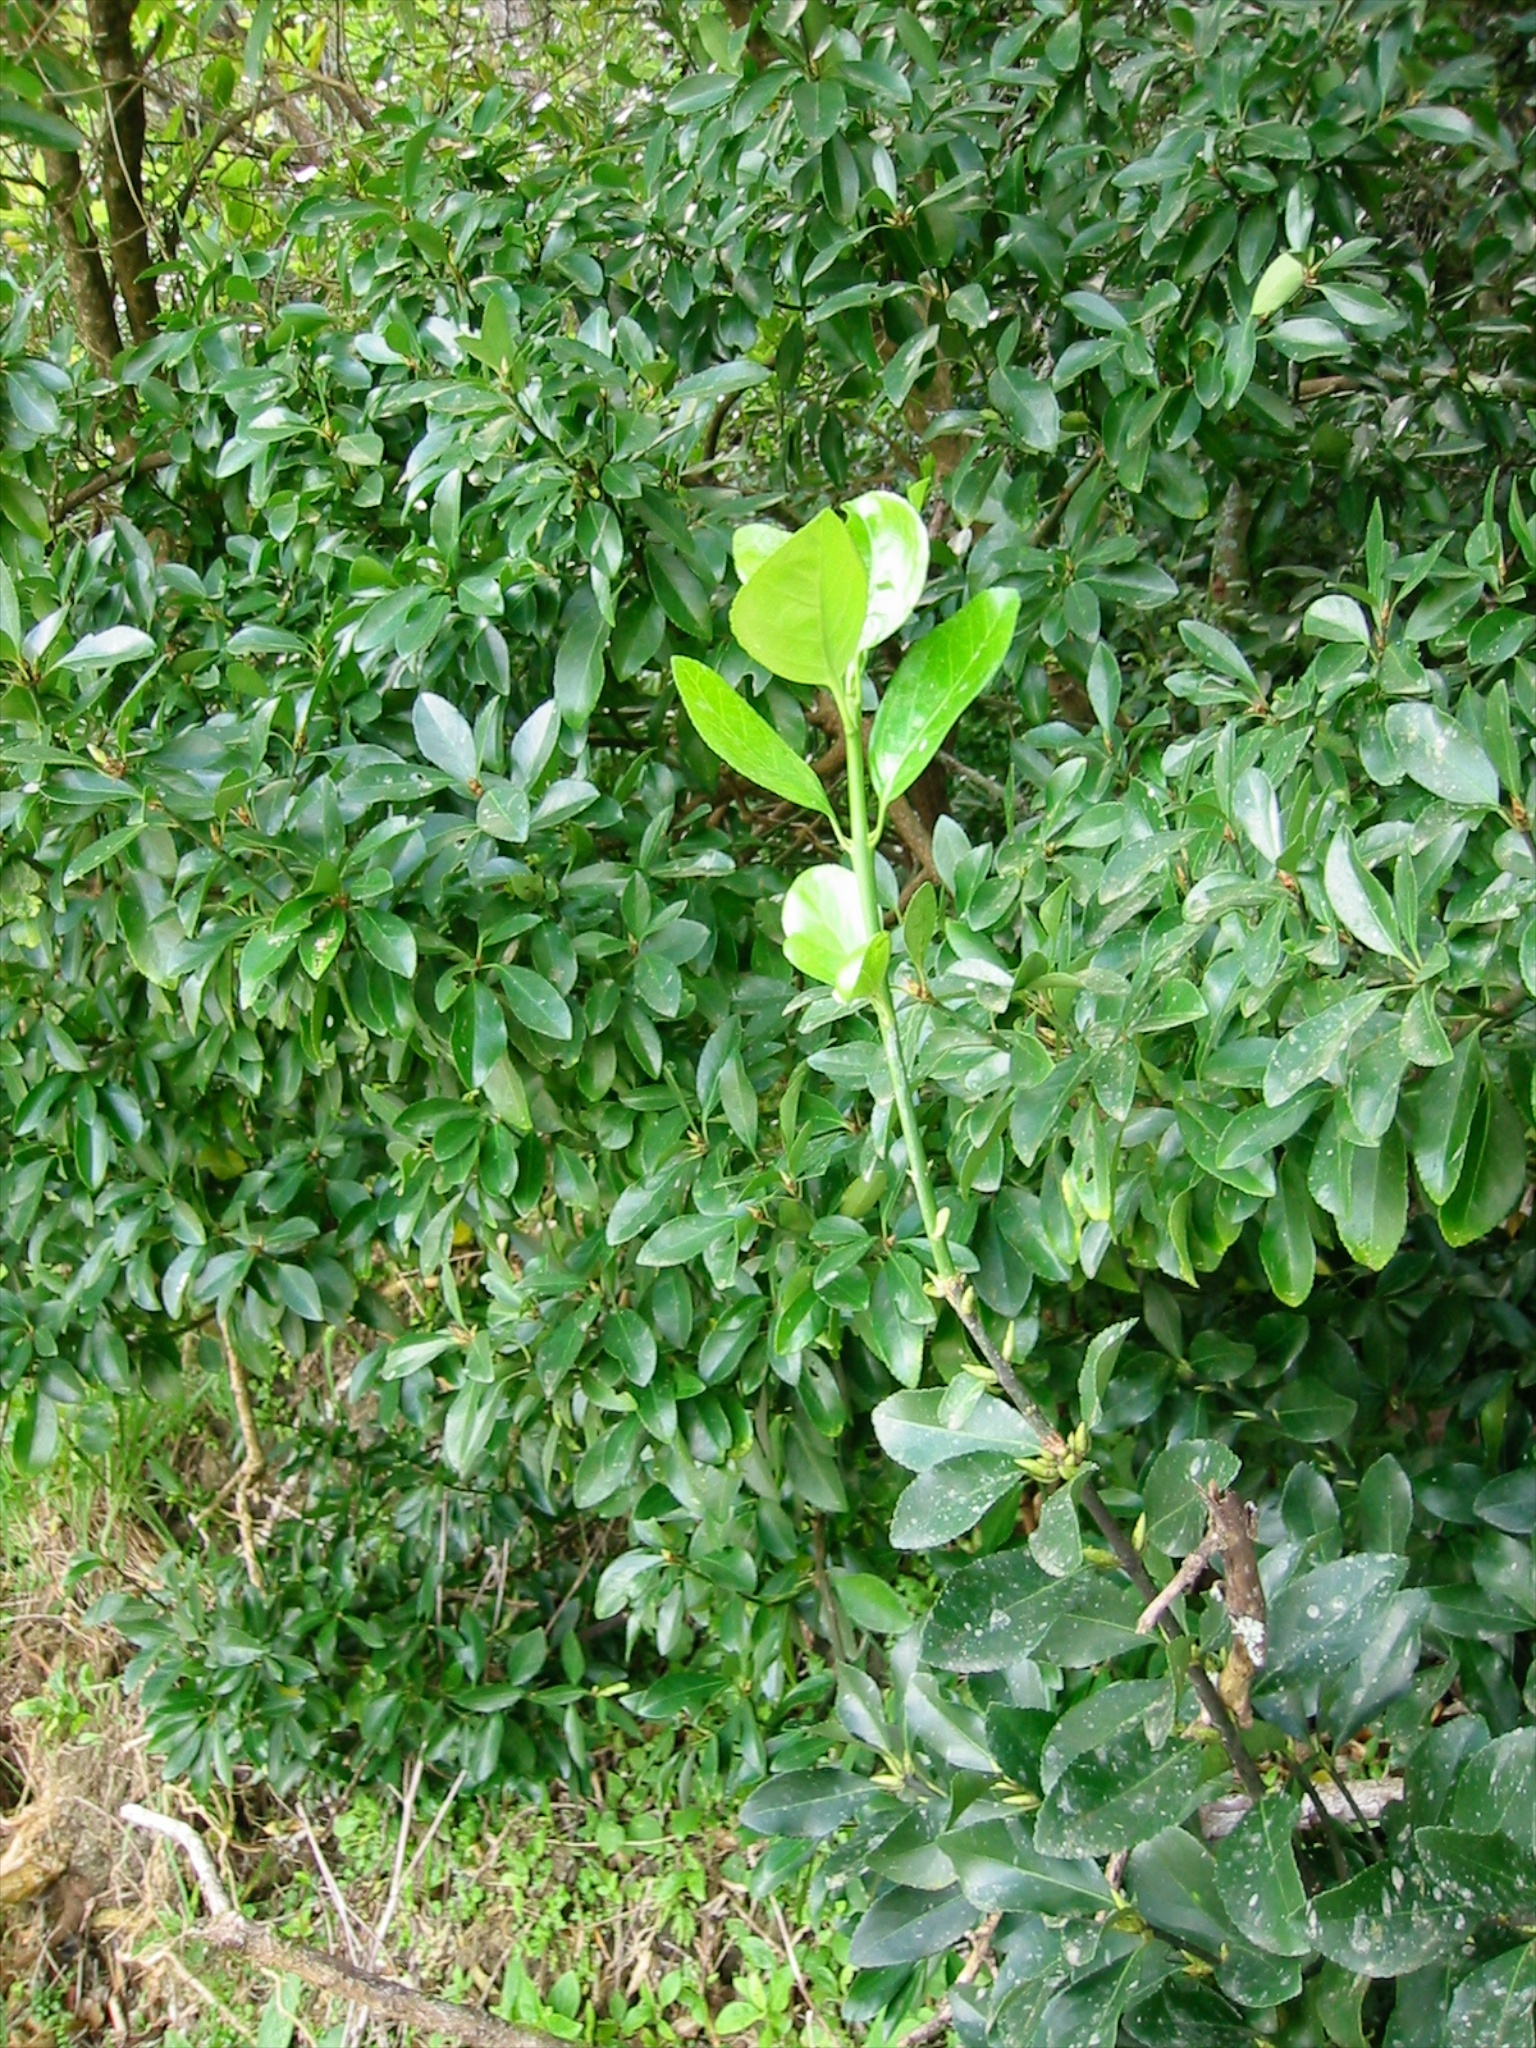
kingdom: Plantae
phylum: Tracheophyta
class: Magnoliopsida
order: Celastrales
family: Celastraceae
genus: Euonymus
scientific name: Euonymus japonicus
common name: Japanese spindletree
